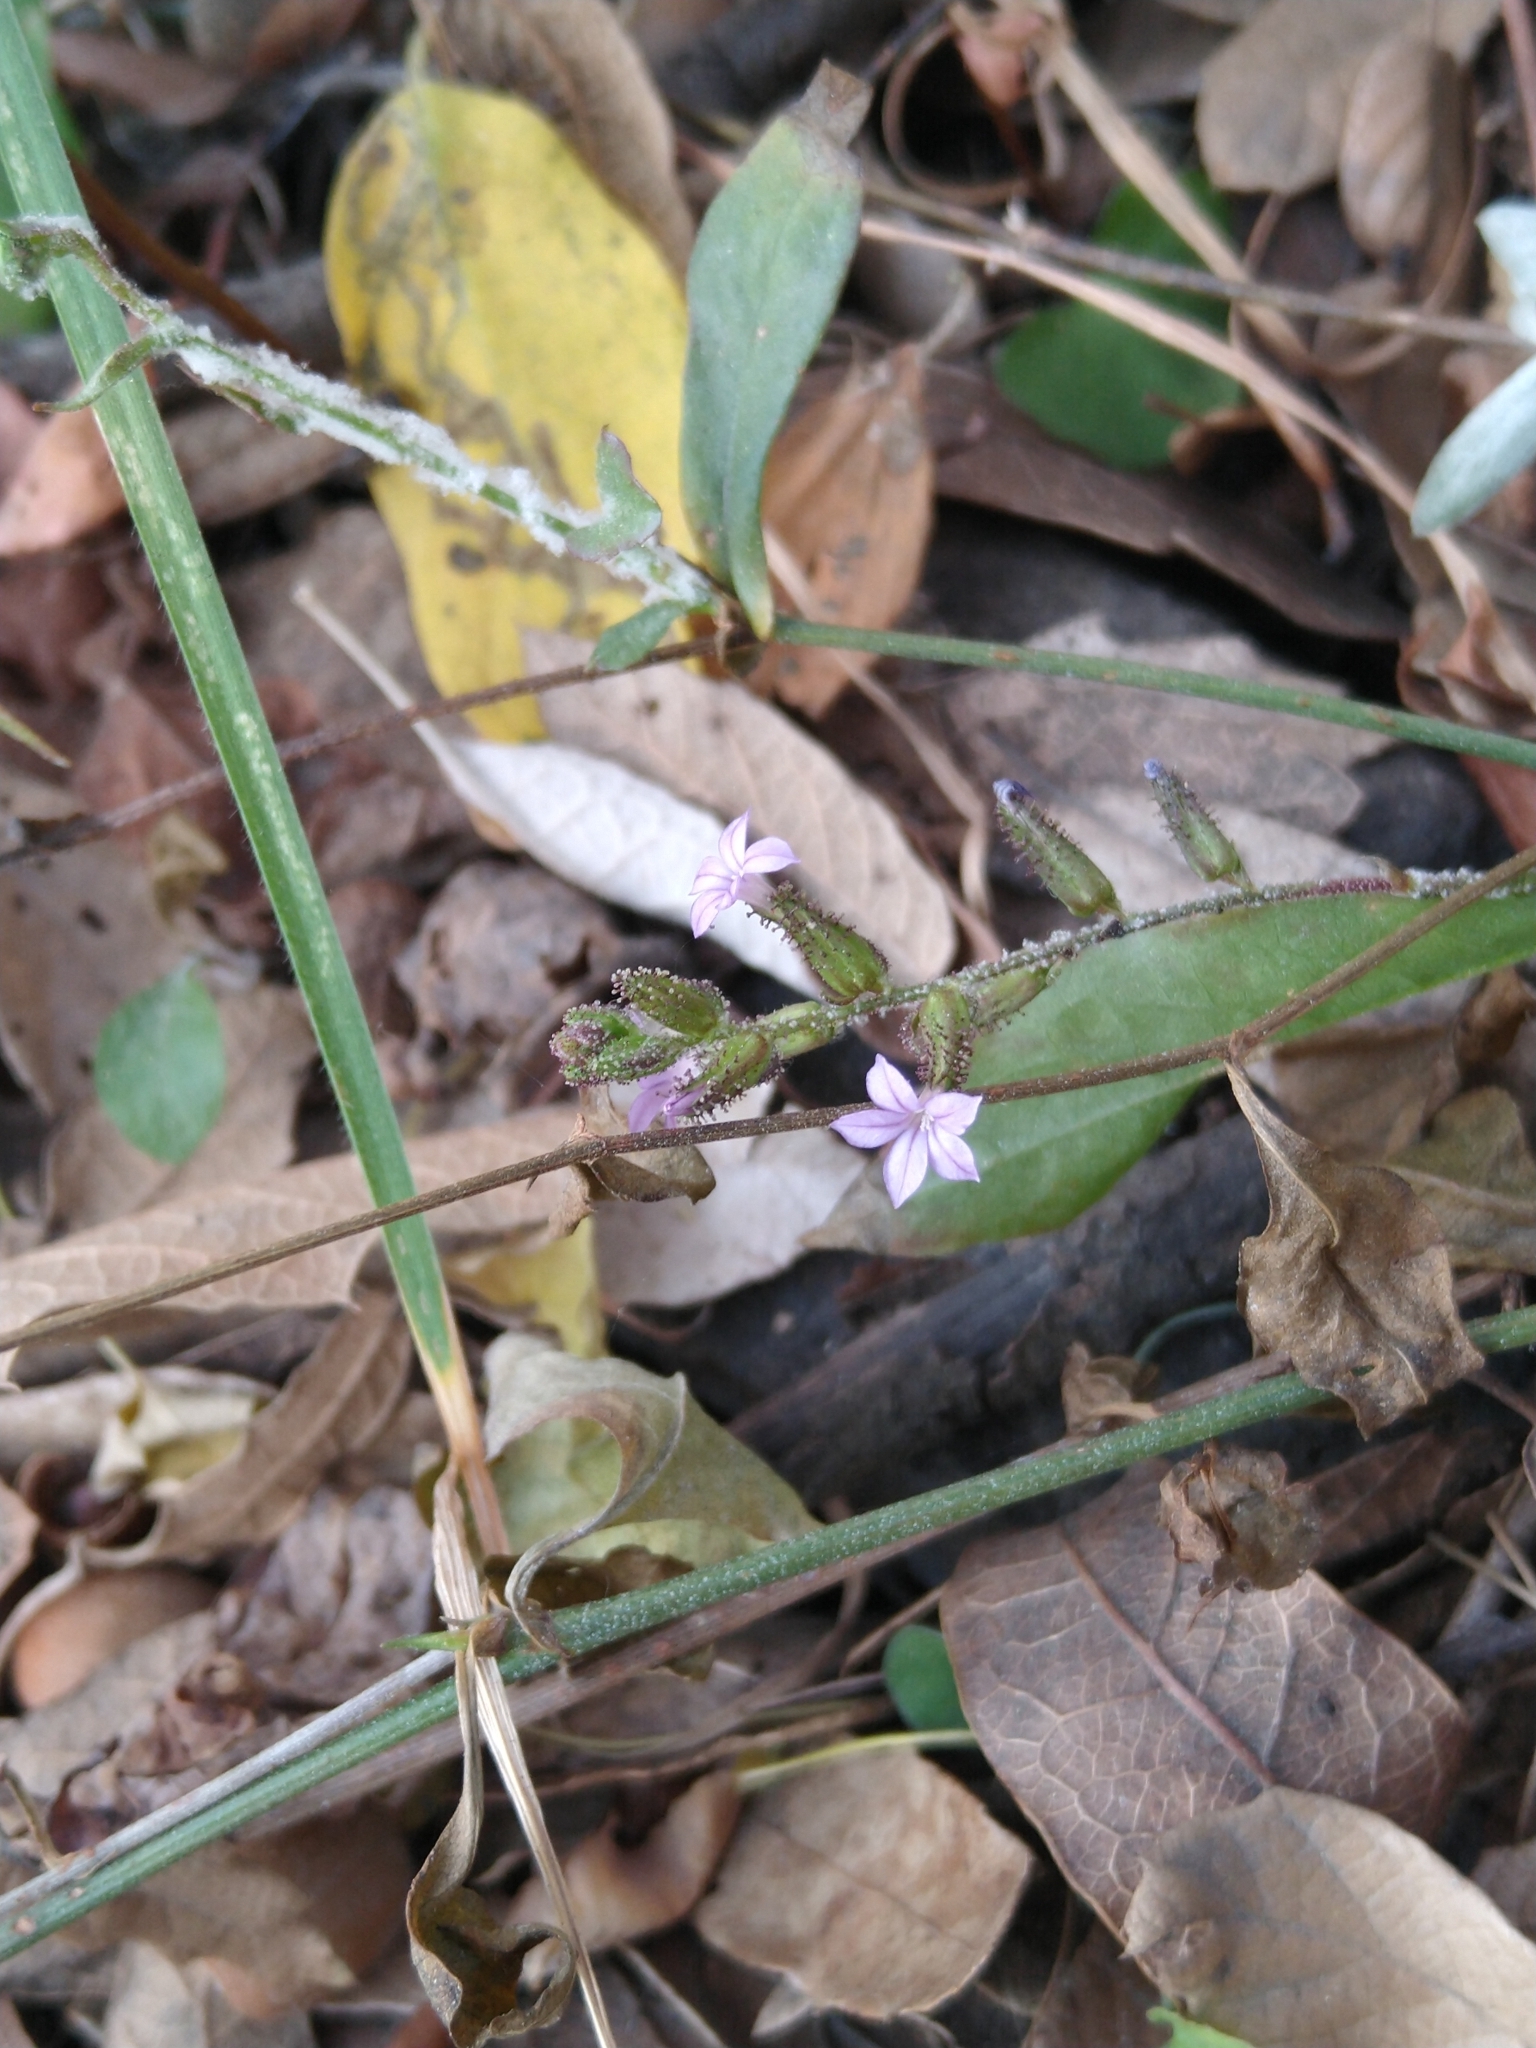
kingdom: Plantae
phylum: Tracheophyta
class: Magnoliopsida
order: Caryophyllales
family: Plumbaginaceae
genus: Plumbago
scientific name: Plumbago pulchella
